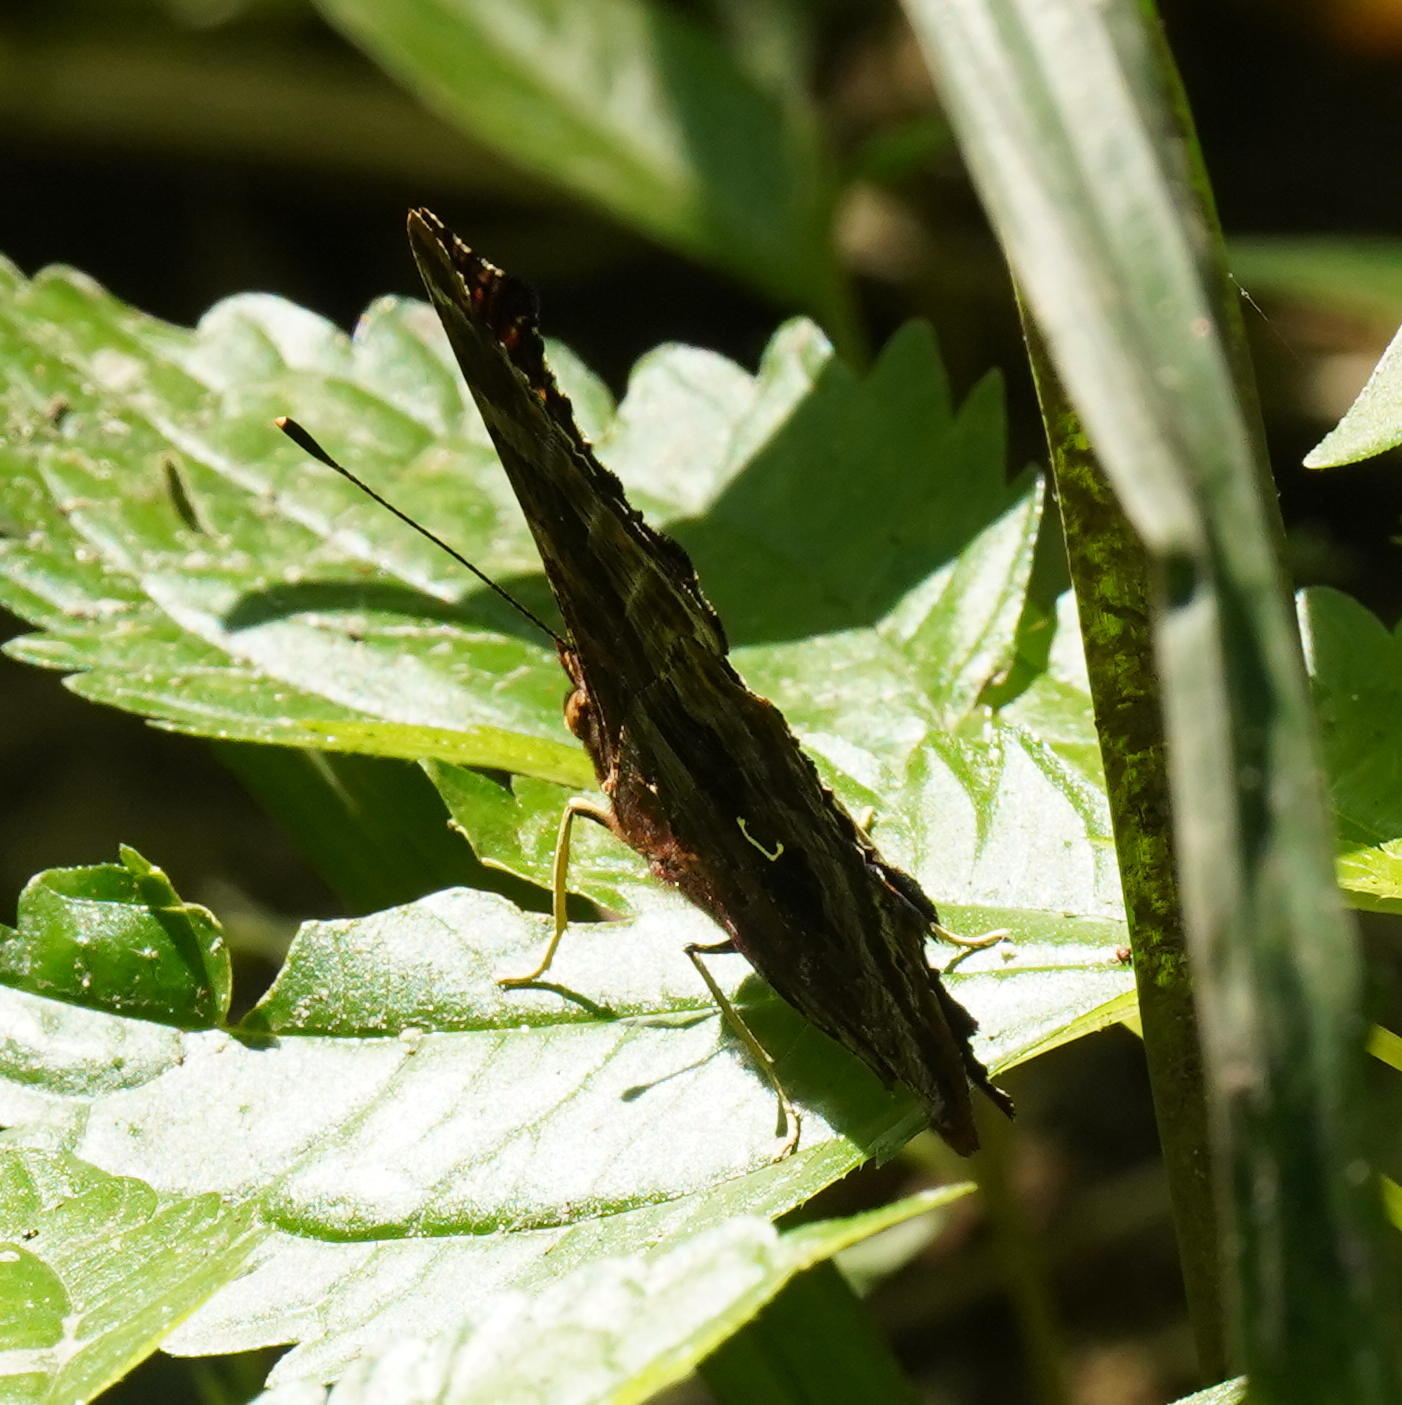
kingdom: Animalia
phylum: Arthropoda
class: Insecta
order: Lepidoptera
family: Nymphalidae
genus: Polygonia
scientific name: Polygonia comma
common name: Eastern comma
